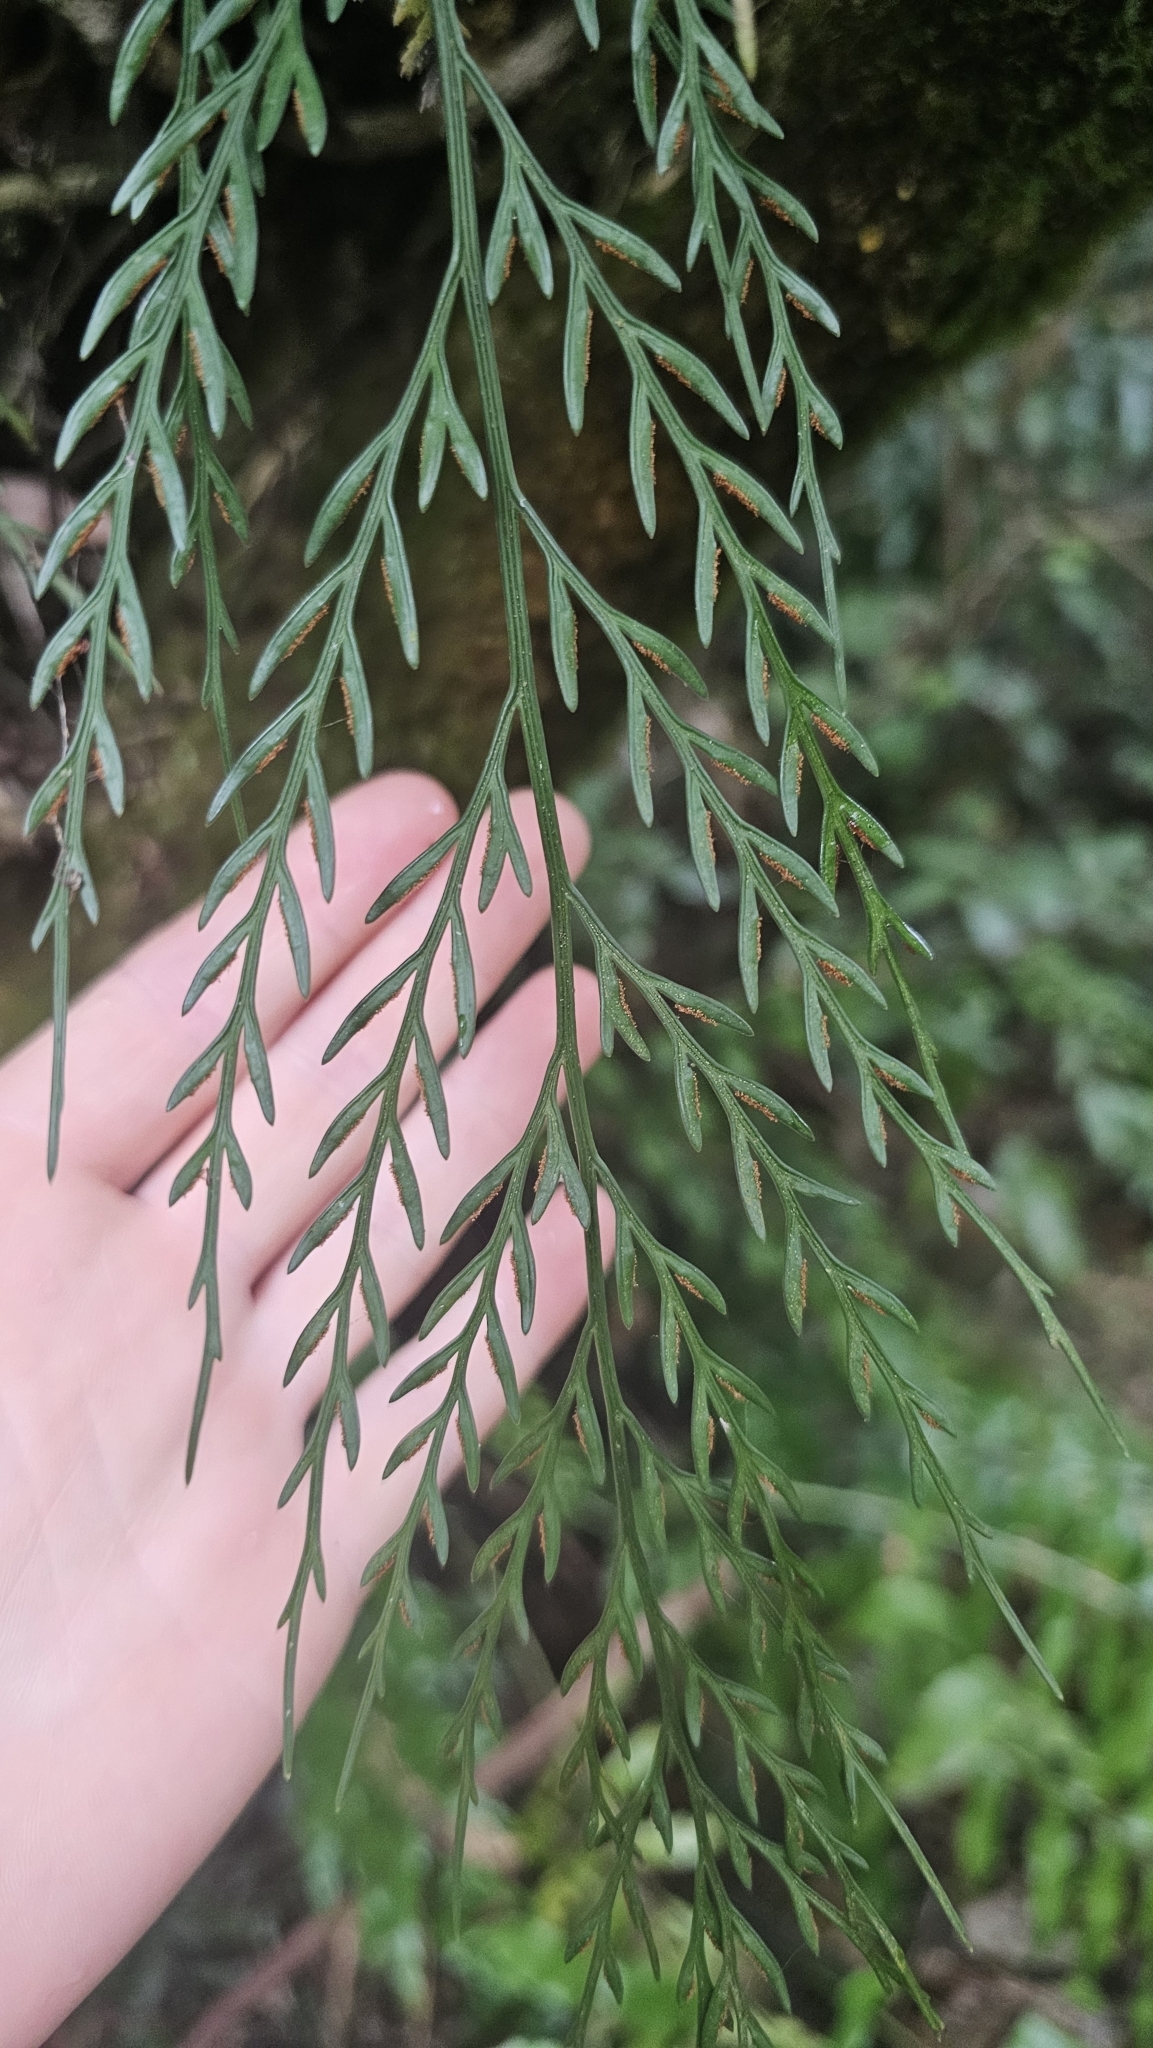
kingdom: Plantae
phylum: Tracheophyta
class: Polypodiopsida
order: Polypodiales
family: Aspleniaceae
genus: Asplenium
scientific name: Asplenium flaccidum
